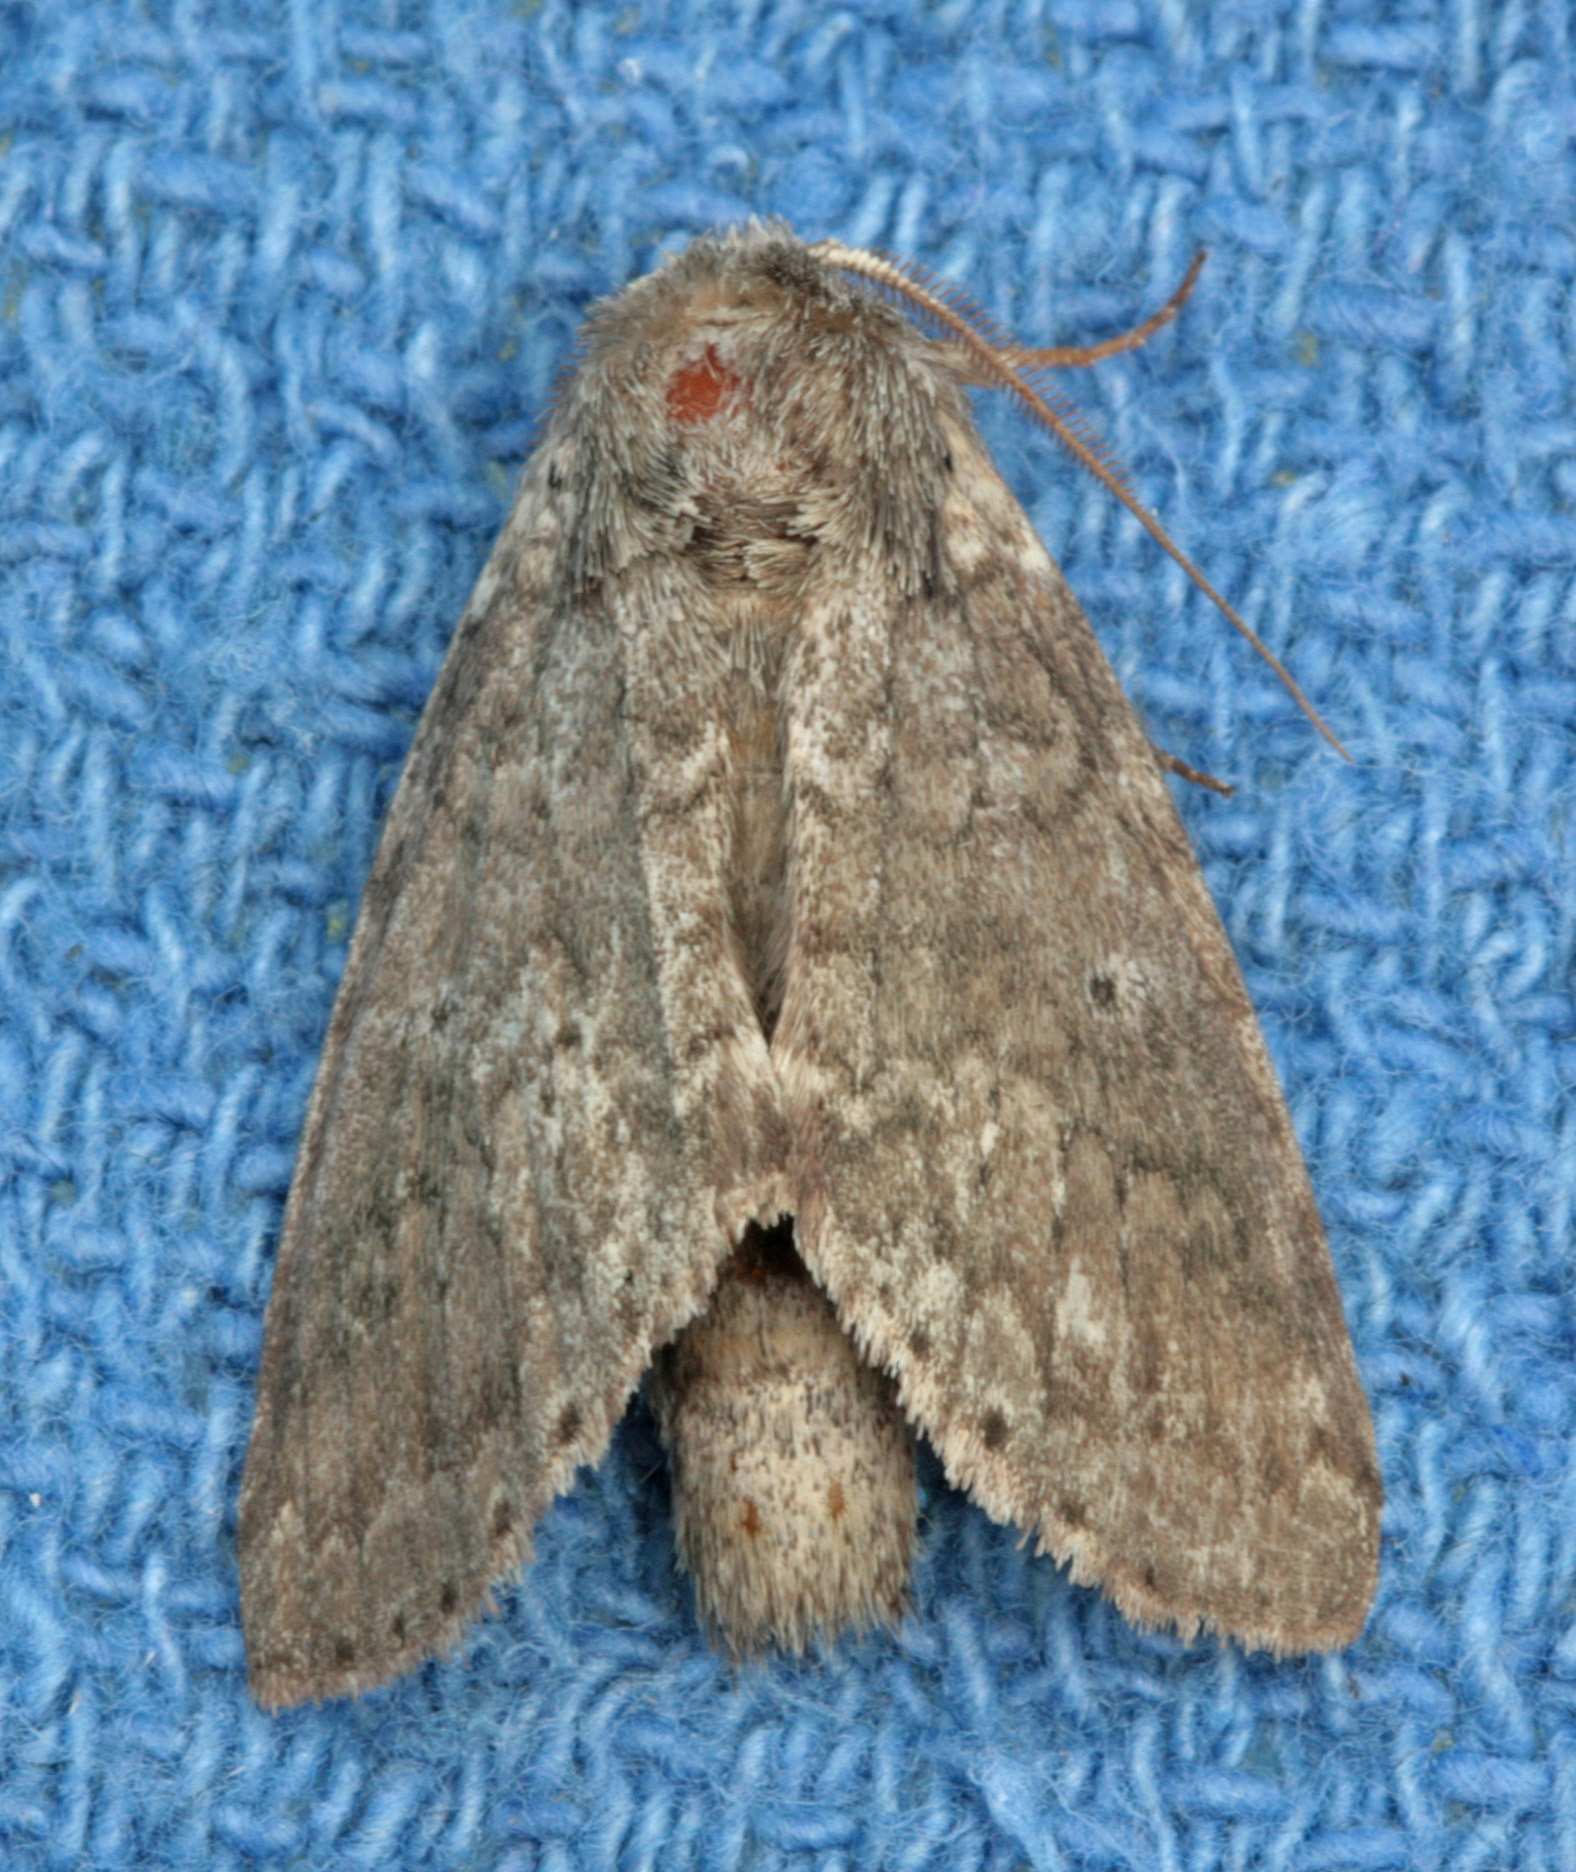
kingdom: Animalia
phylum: Arthropoda
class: Insecta
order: Lepidoptera
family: Notodontidae
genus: Lochmaeus
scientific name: Lochmaeus manteo
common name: Variable oakleaf caterpillar moth
